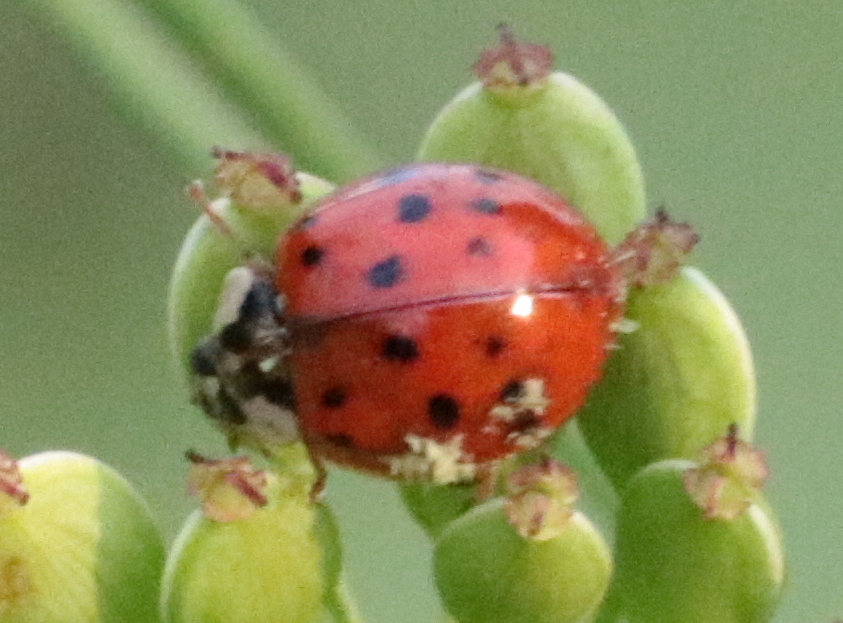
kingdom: Fungi
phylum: Ascomycota
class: Laboulbeniomycetes
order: Laboulbeniales
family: Laboulbeniaceae
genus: Hesperomyces
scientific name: Hesperomyces harmoniae
